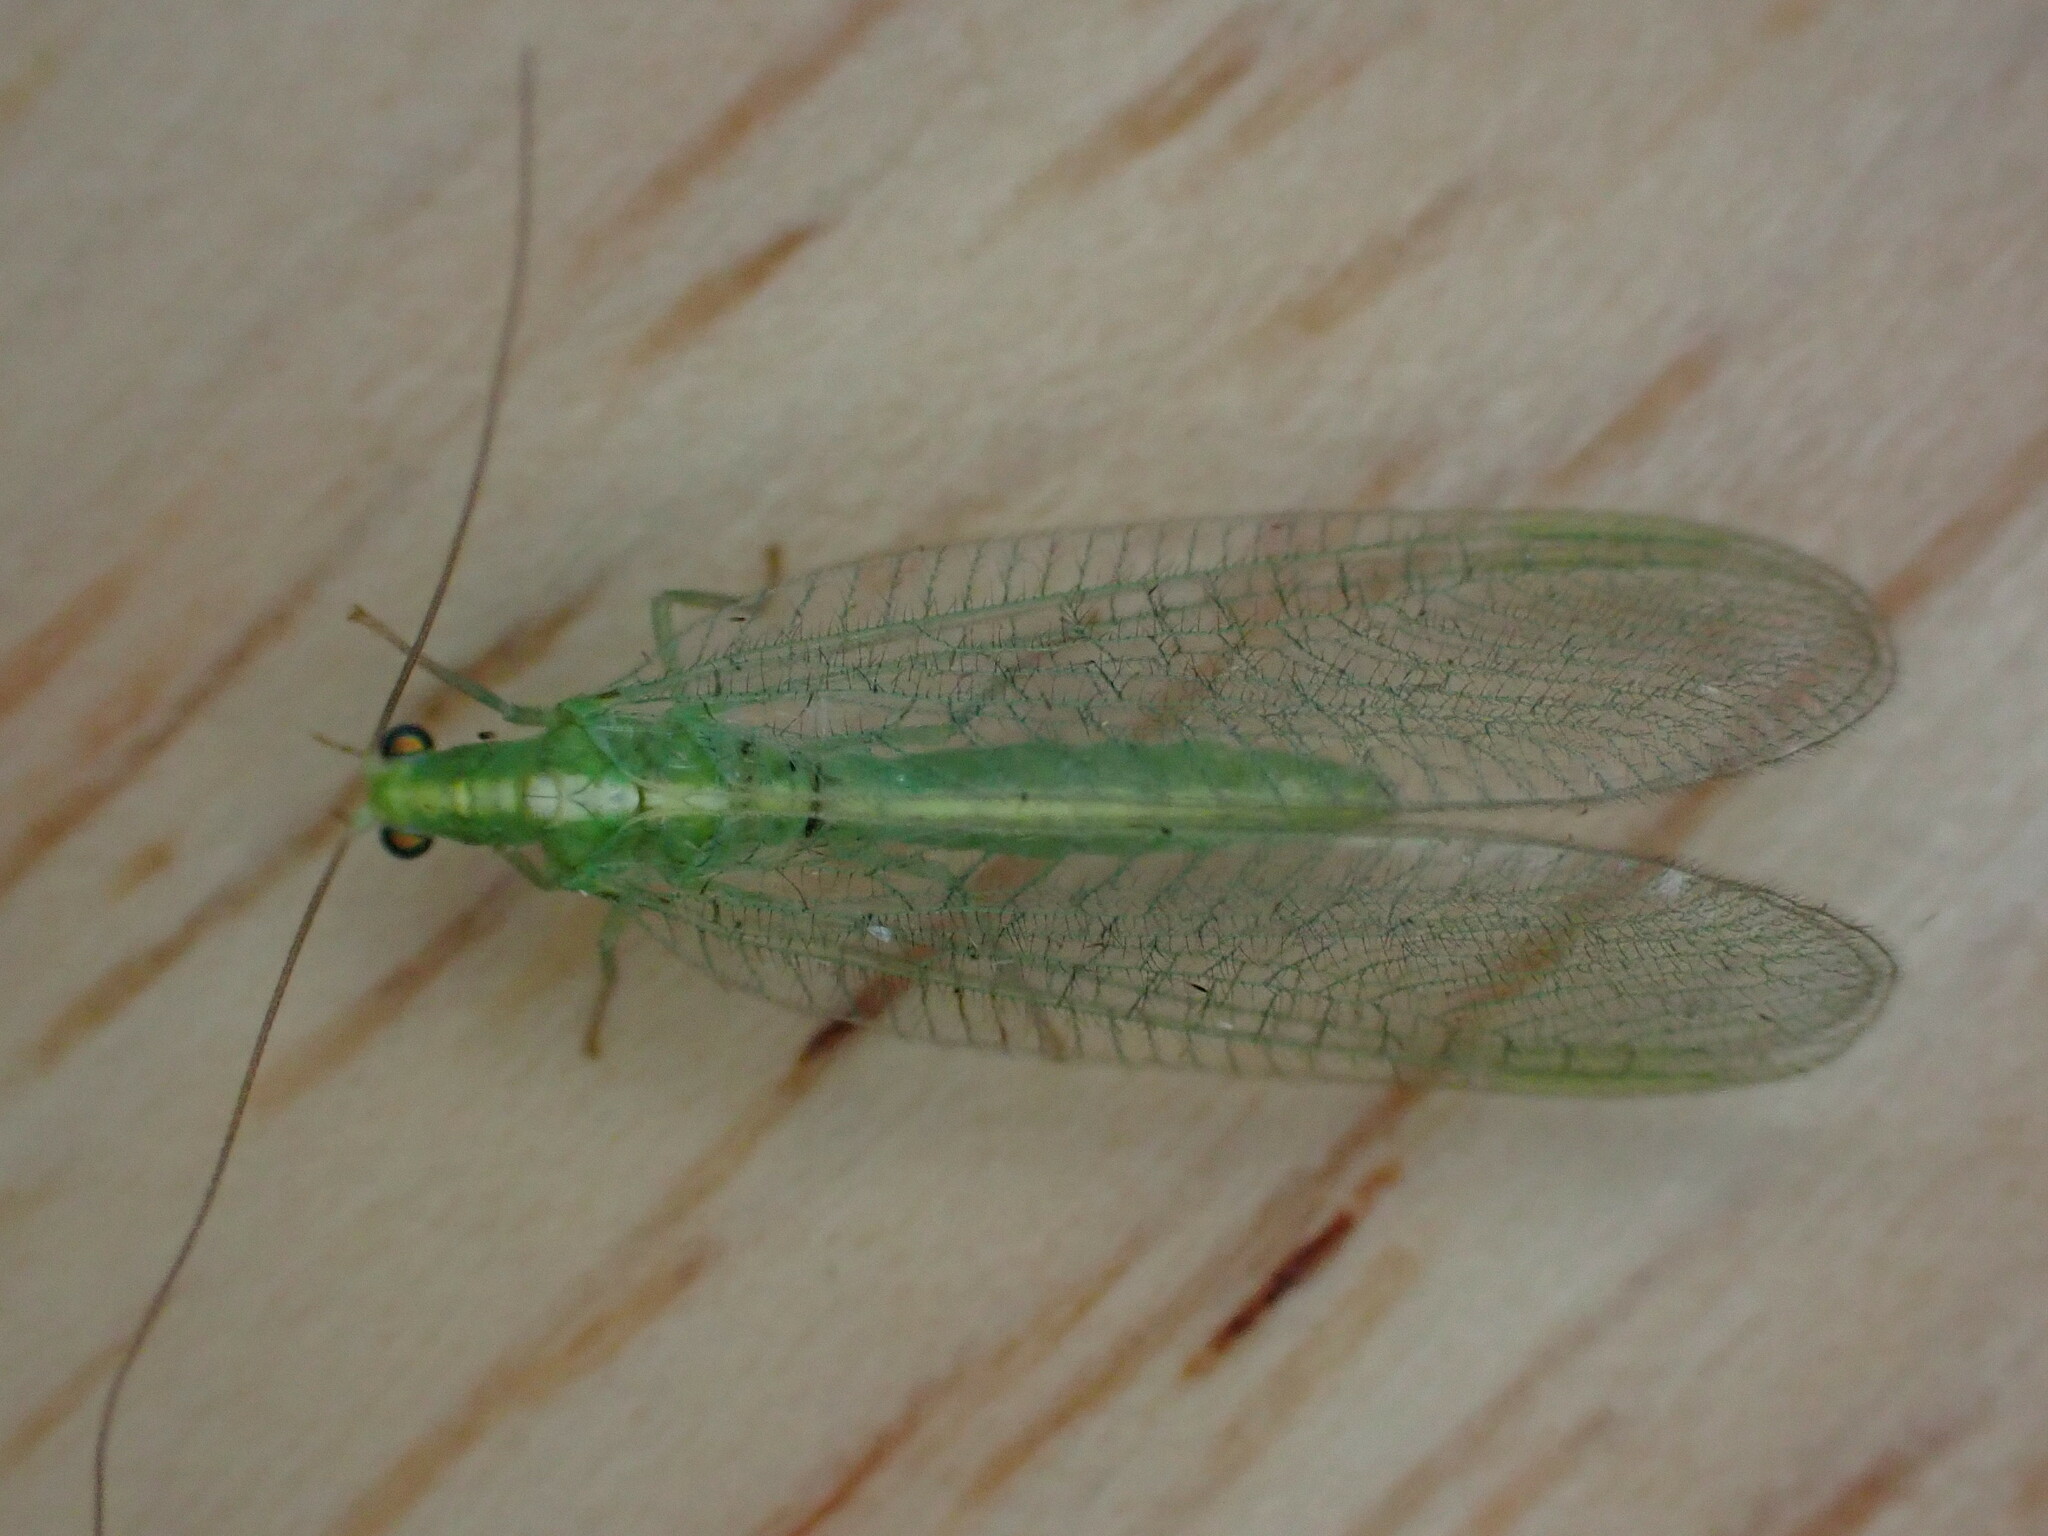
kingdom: Animalia
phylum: Arthropoda
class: Insecta
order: Neuroptera
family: Chrysopidae
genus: Chrysoperla
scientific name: Chrysoperla
